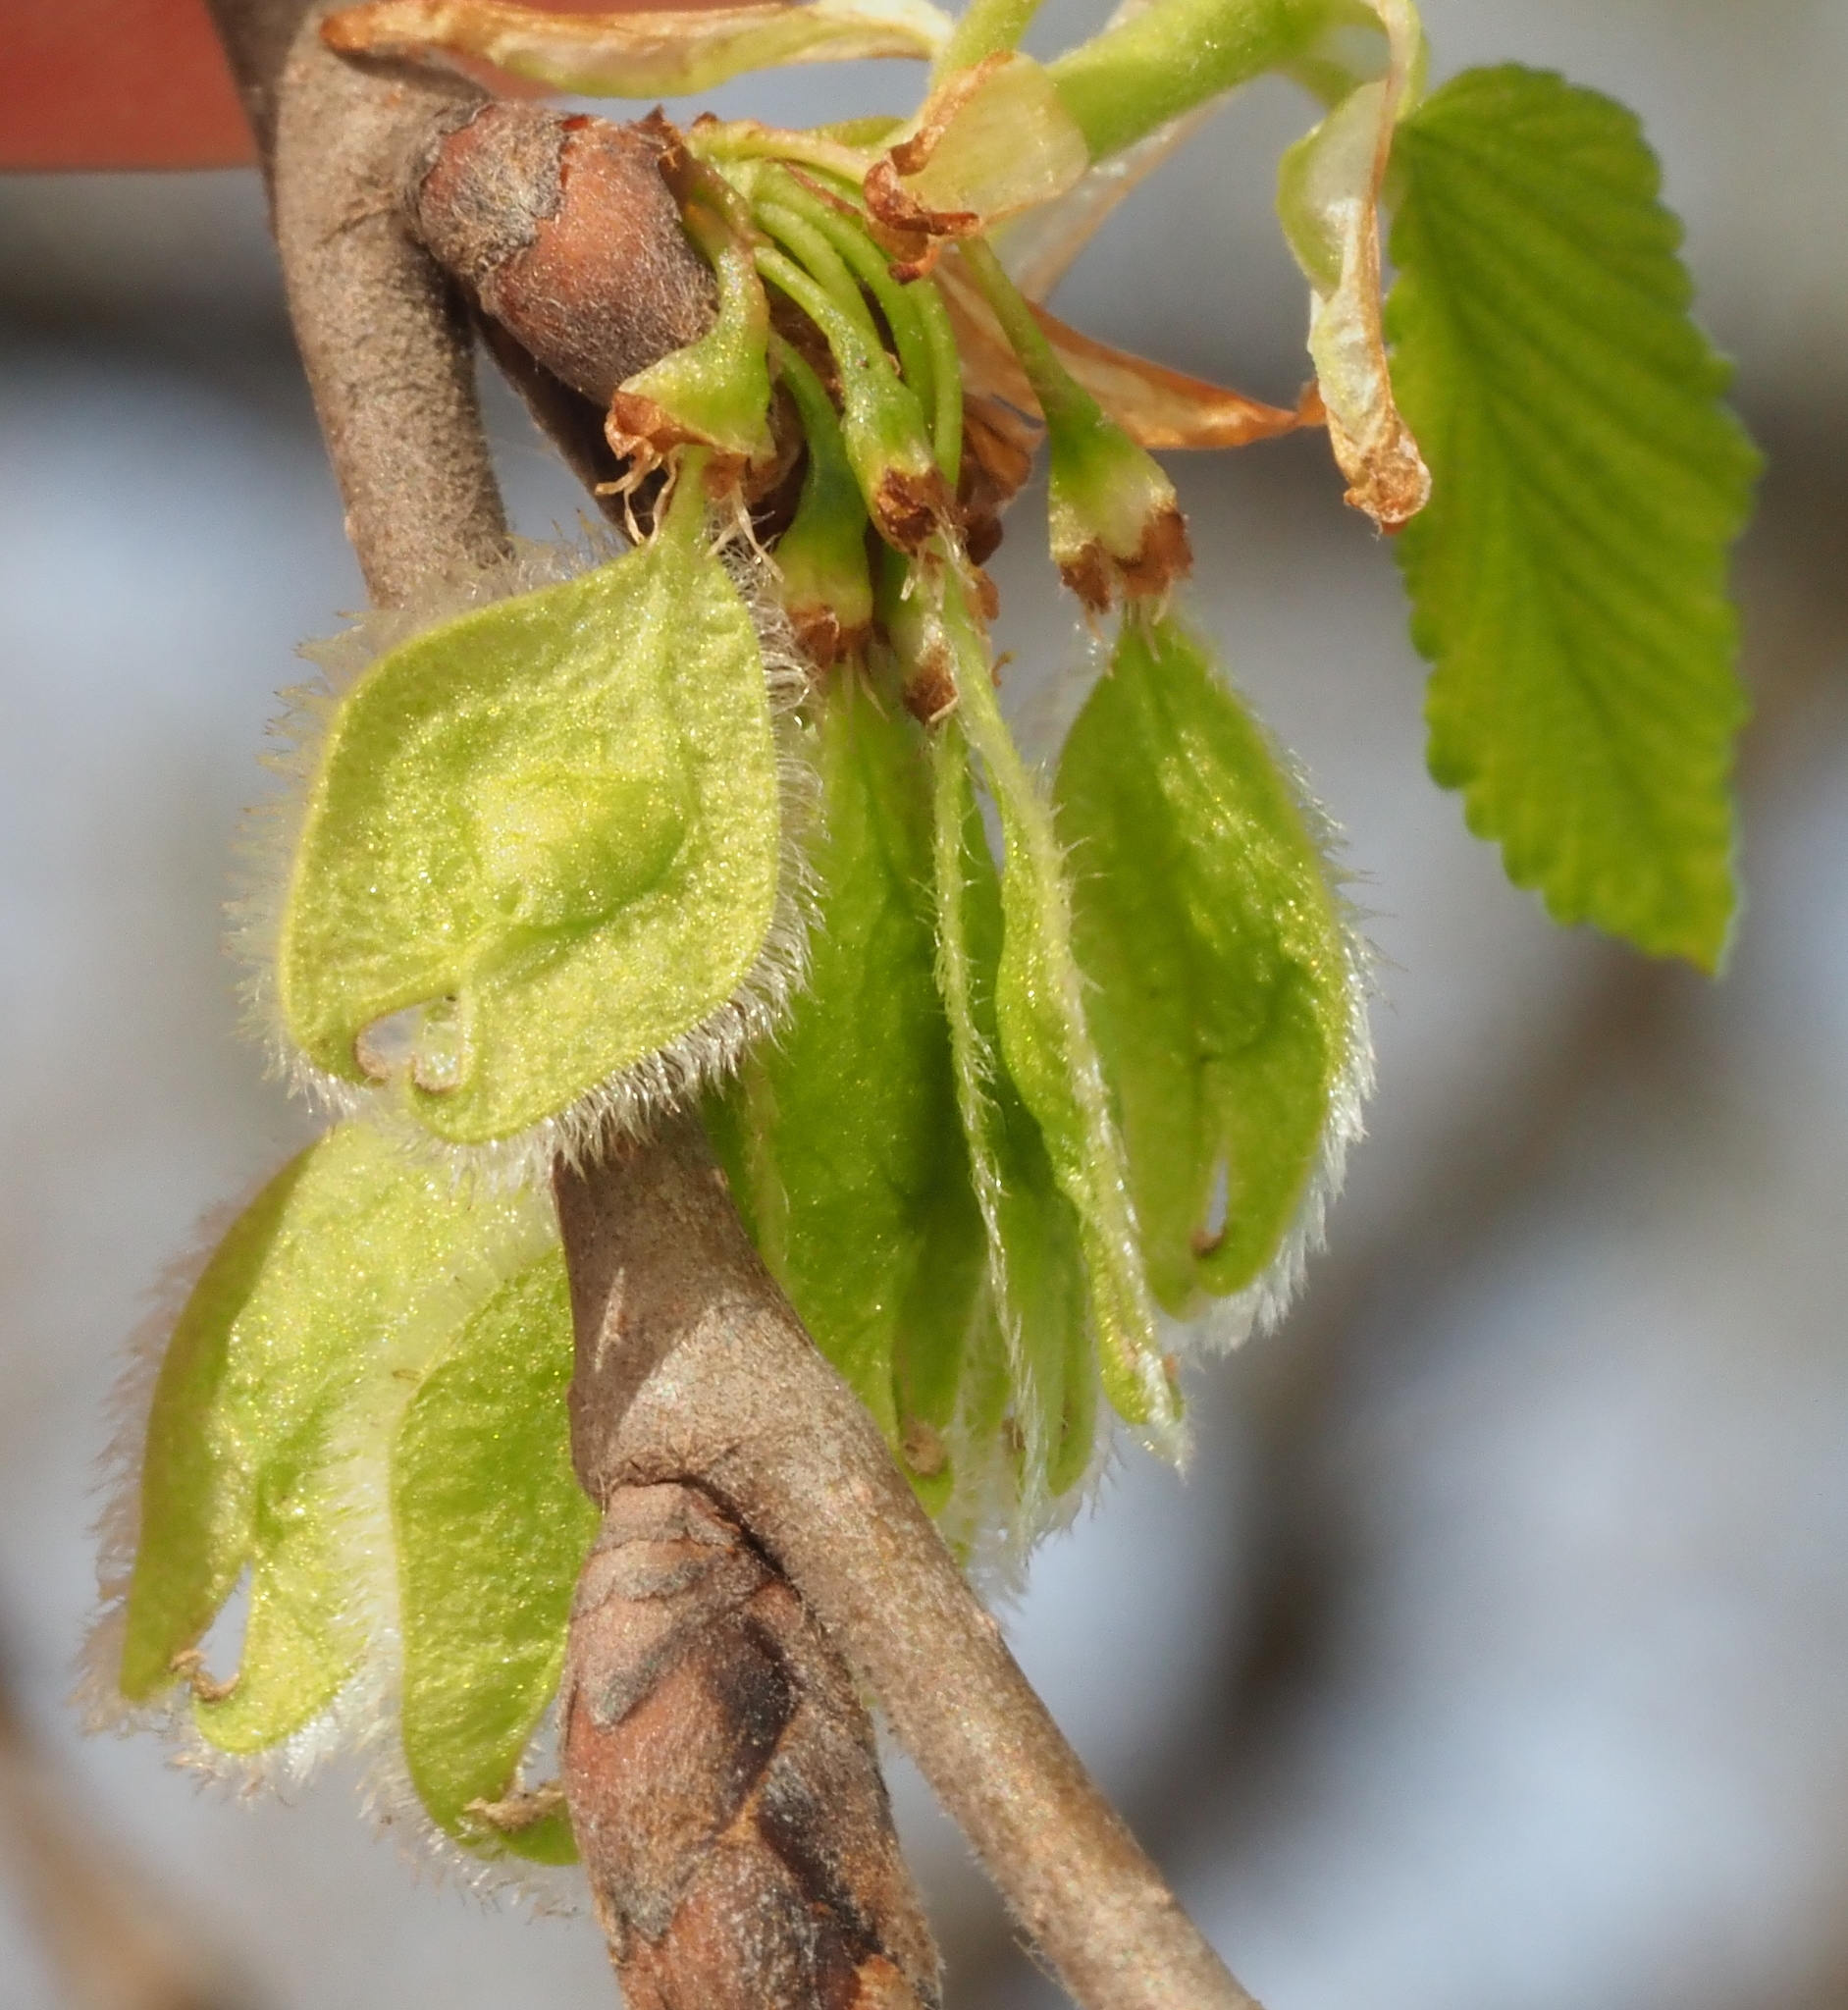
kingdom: Plantae
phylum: Tracheophyta
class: Magnoliopsida
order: Rosales
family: Ulmaceae
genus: Ulmus
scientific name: Ulmus americana
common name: American elm
